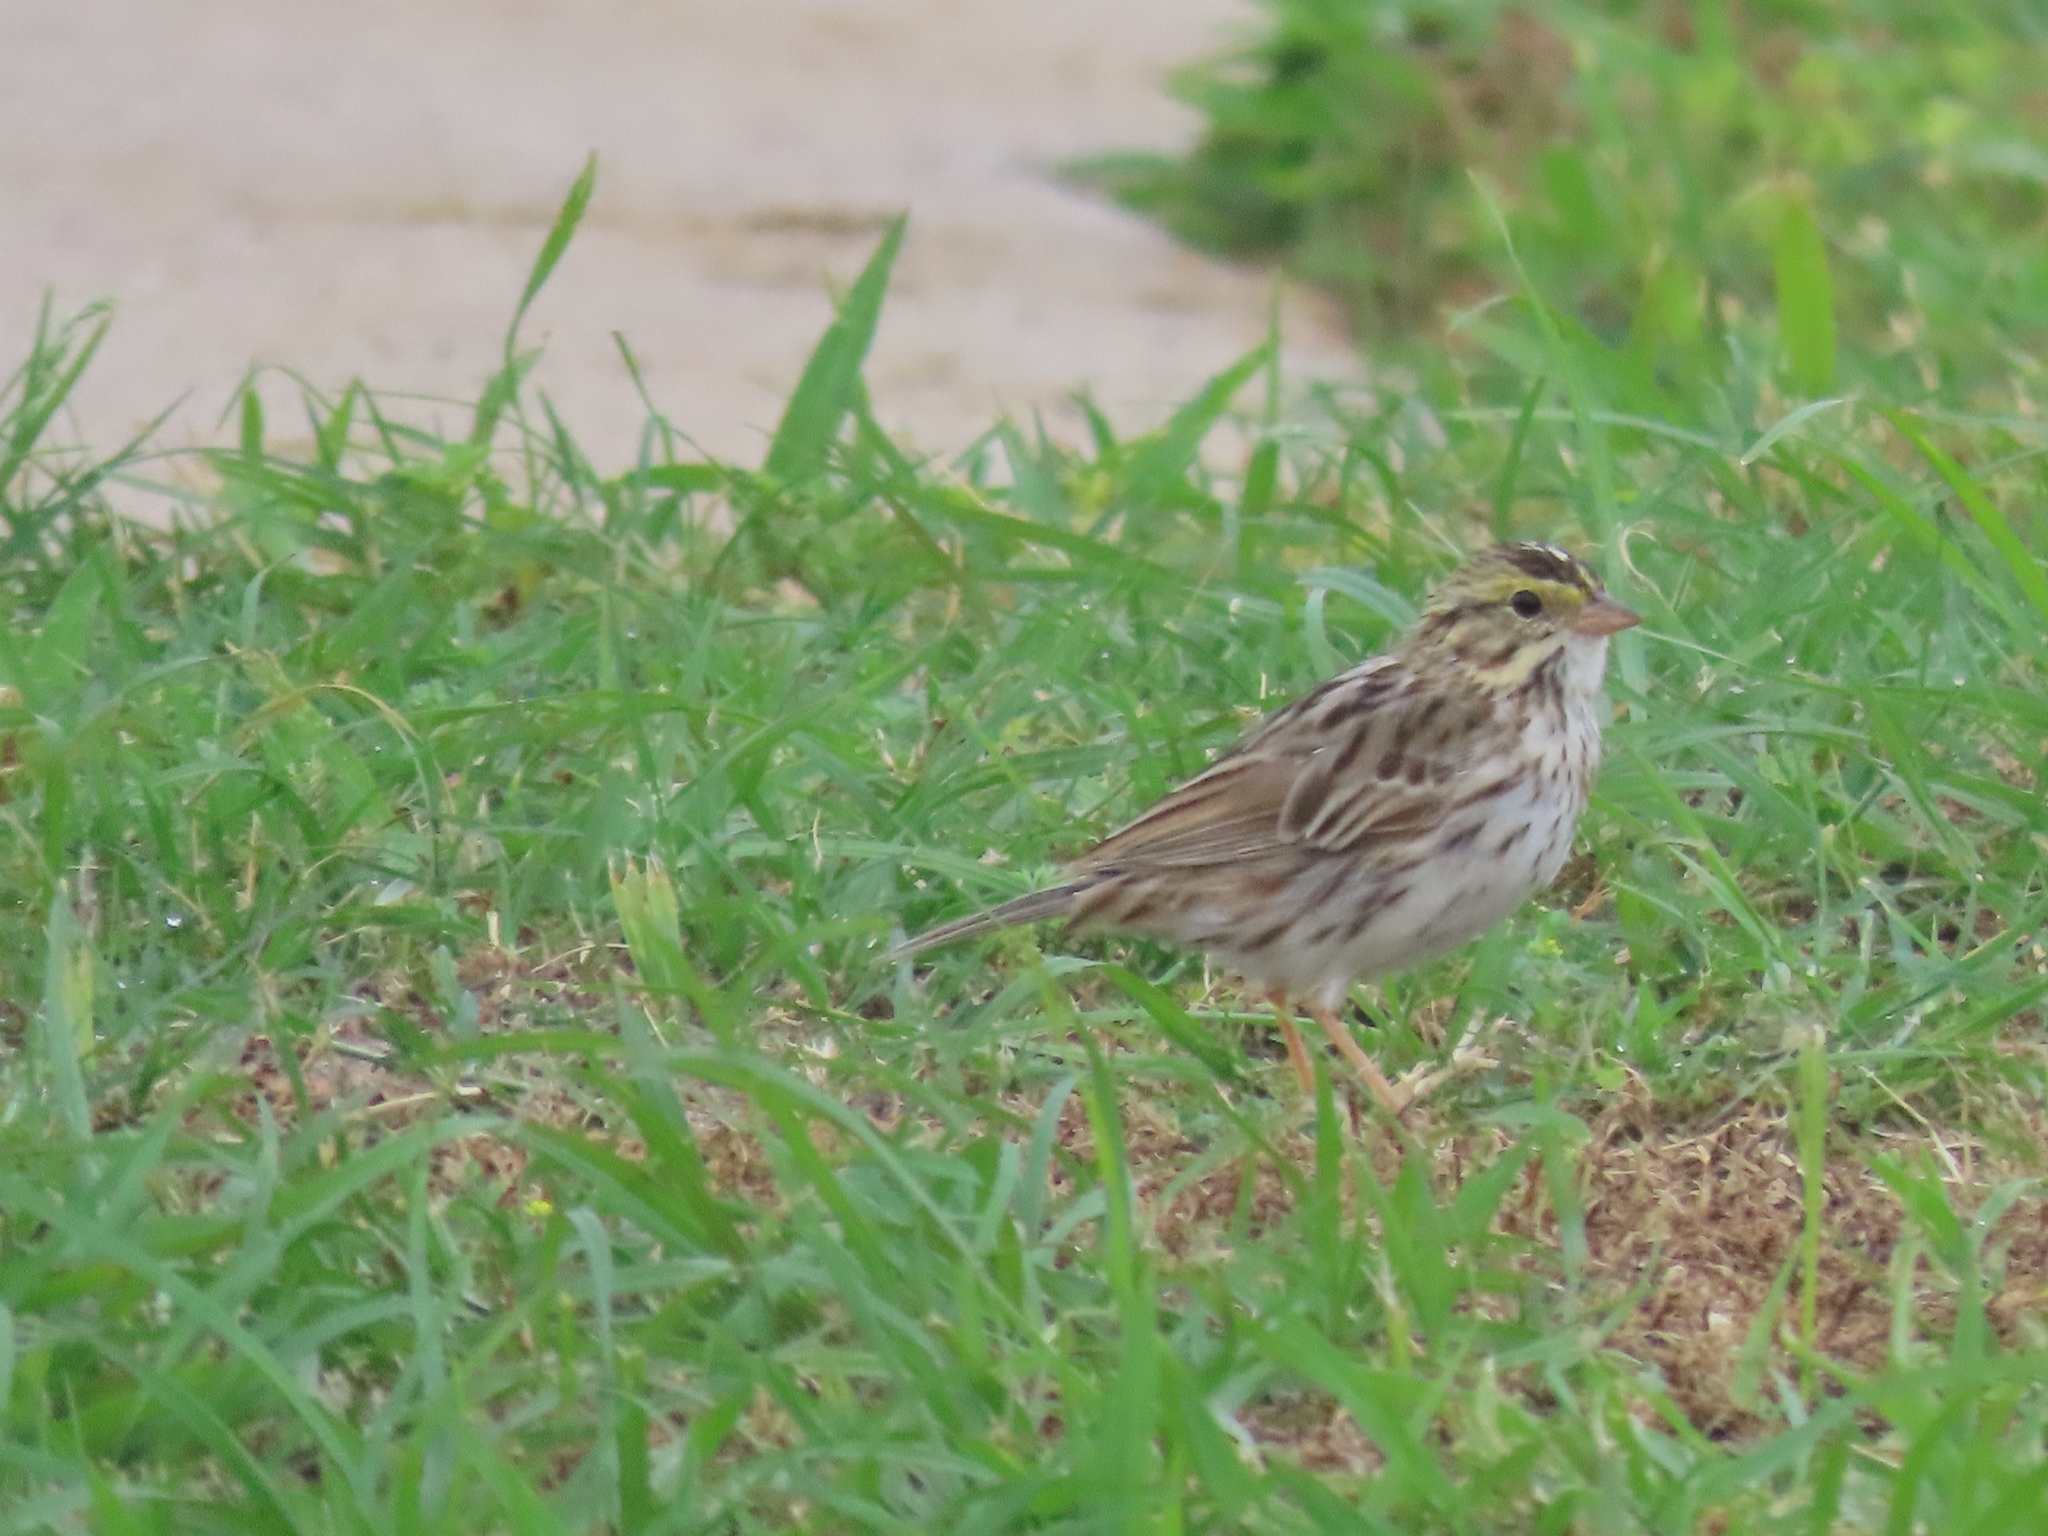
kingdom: Animalia
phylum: Chordata
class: Aves
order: Passeriformes
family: Passerellidae
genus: Passerculus
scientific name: Passerculus sandwichensis
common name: Savannah sparrow
